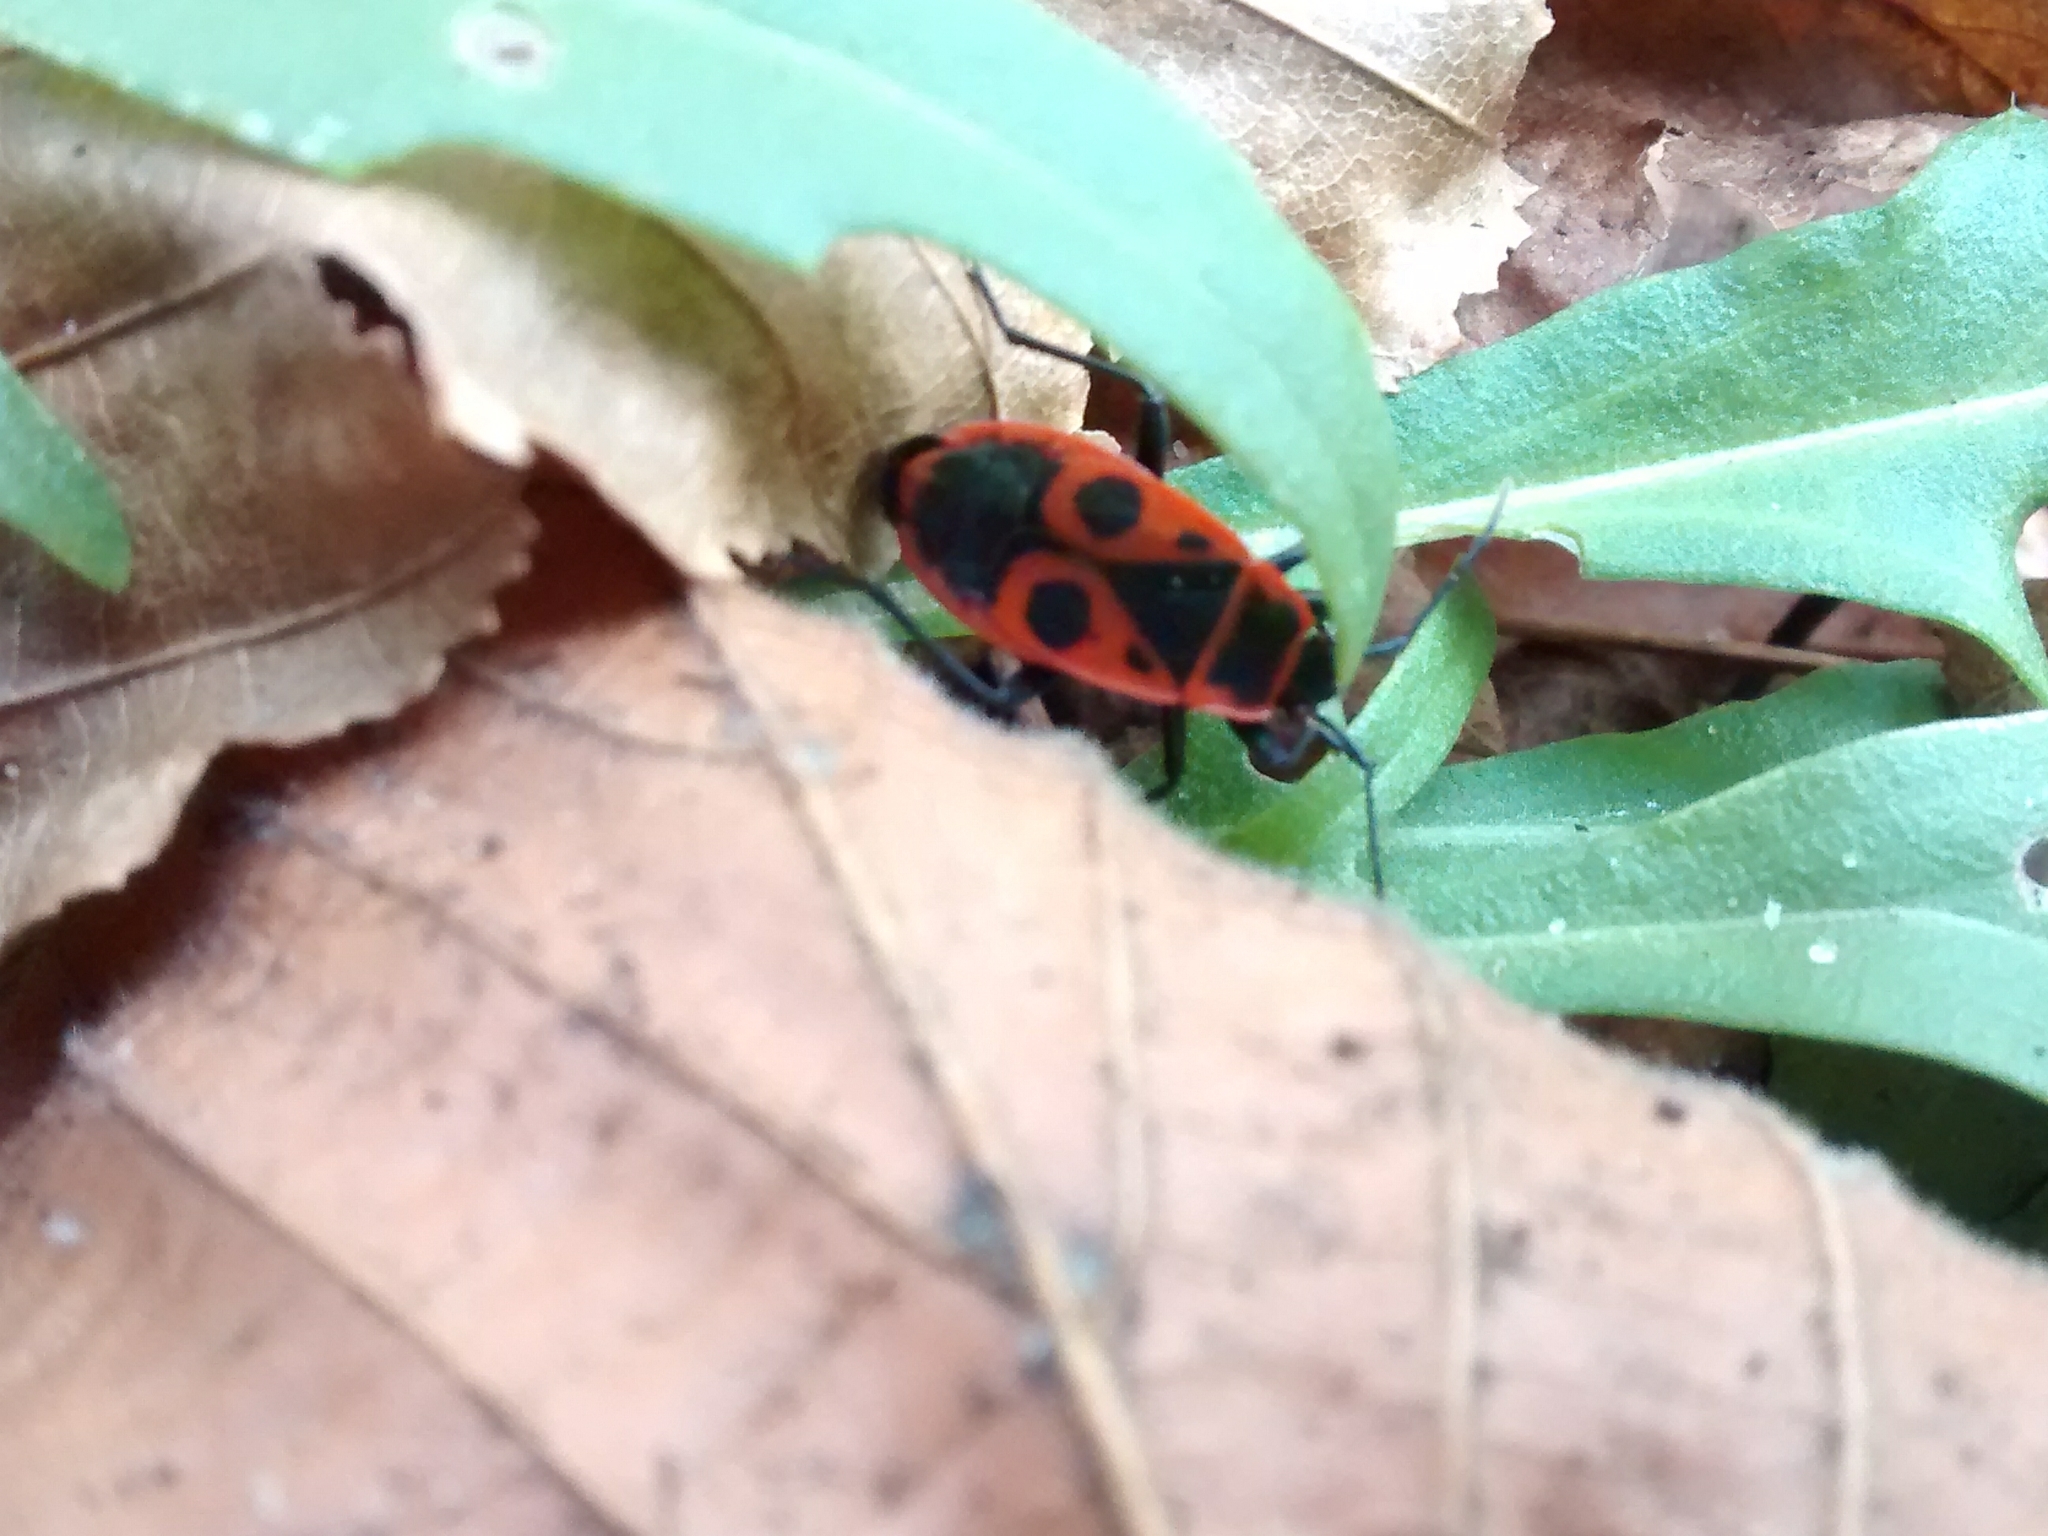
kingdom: Animalia
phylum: Arthropoda
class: Insecta
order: Hemiptera
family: Pyrrhocoridae
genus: Pyrrhocoris
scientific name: Pyrrhocoris apterus
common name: Firebug
